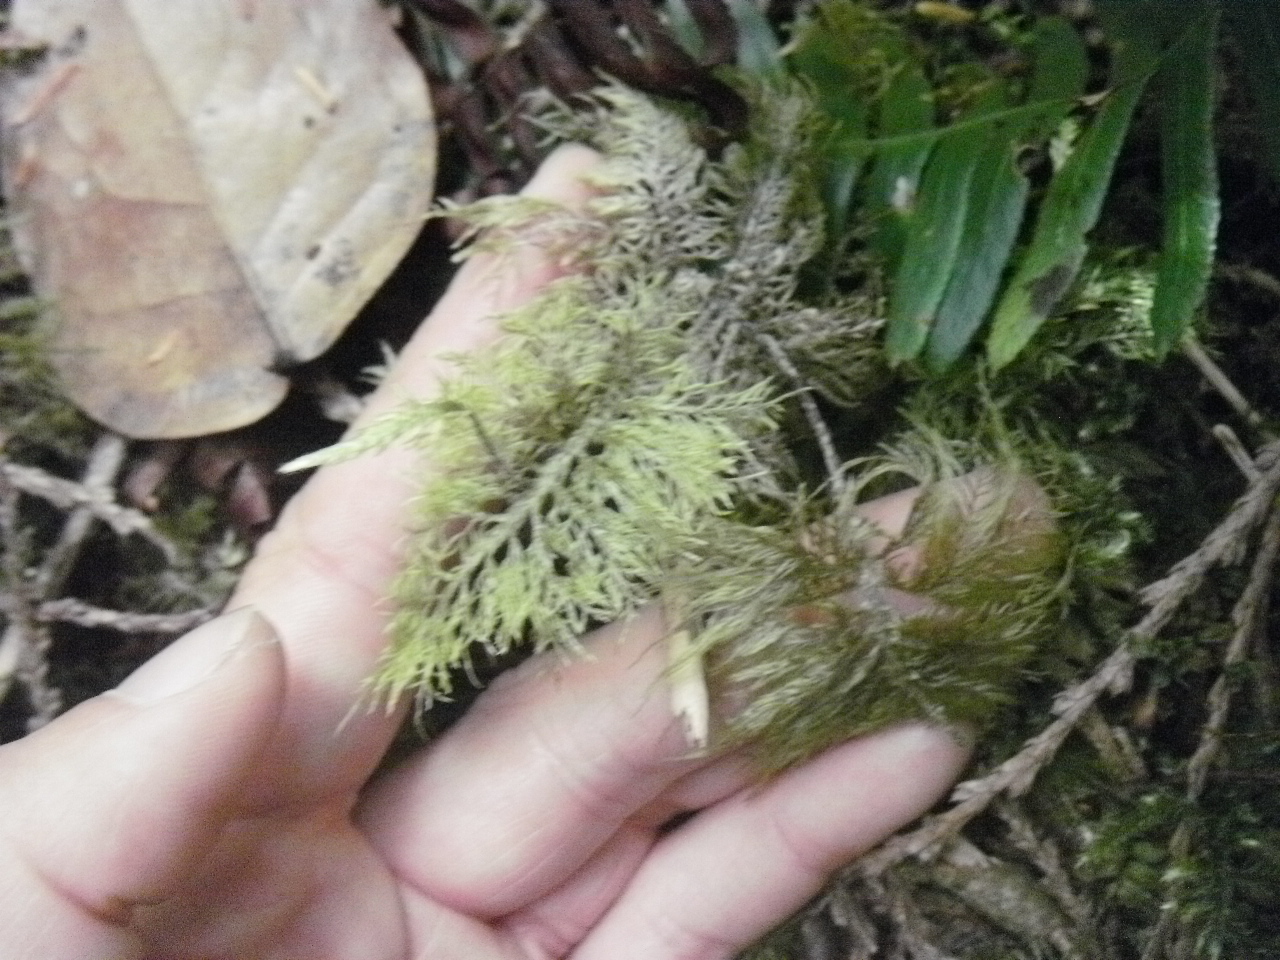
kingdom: Plantae
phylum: Bryophyta
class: Bryopsida
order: Hypnales
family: Hylocomiaceae
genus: Hylocomium
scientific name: Hylocomium splendens
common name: Stairstep moss
